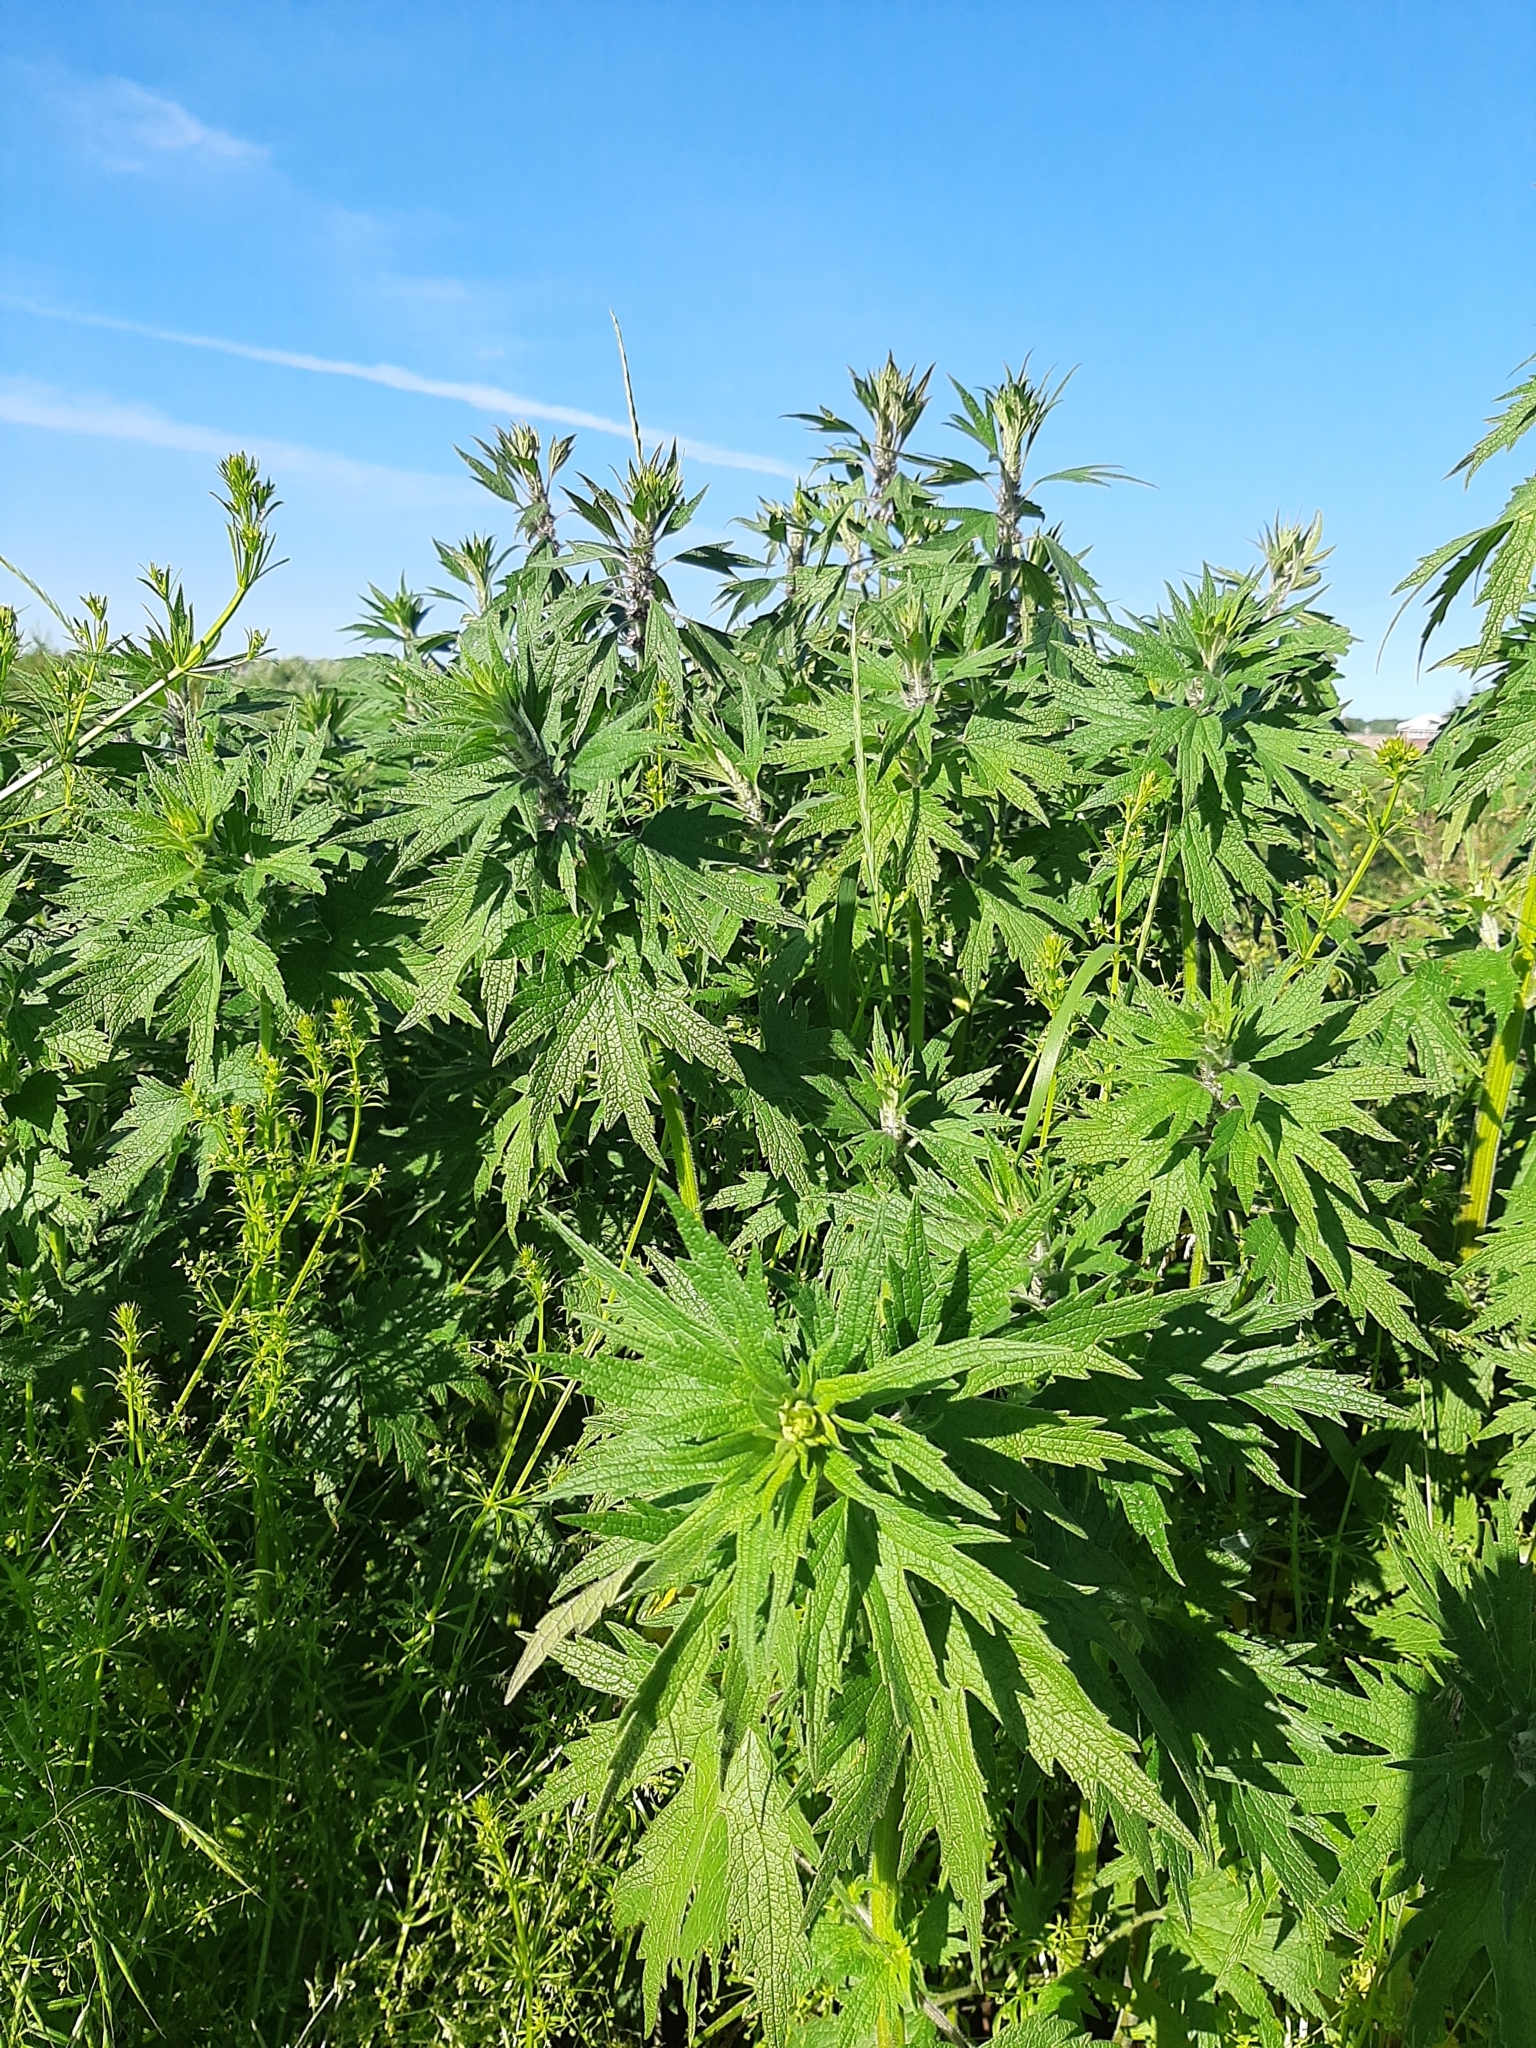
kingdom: Plantae
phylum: Tracheophyta
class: Magnoliopsida
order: Lamiales
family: Lamiaceae
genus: Leonurus
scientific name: Leonurus quinquelobatus
